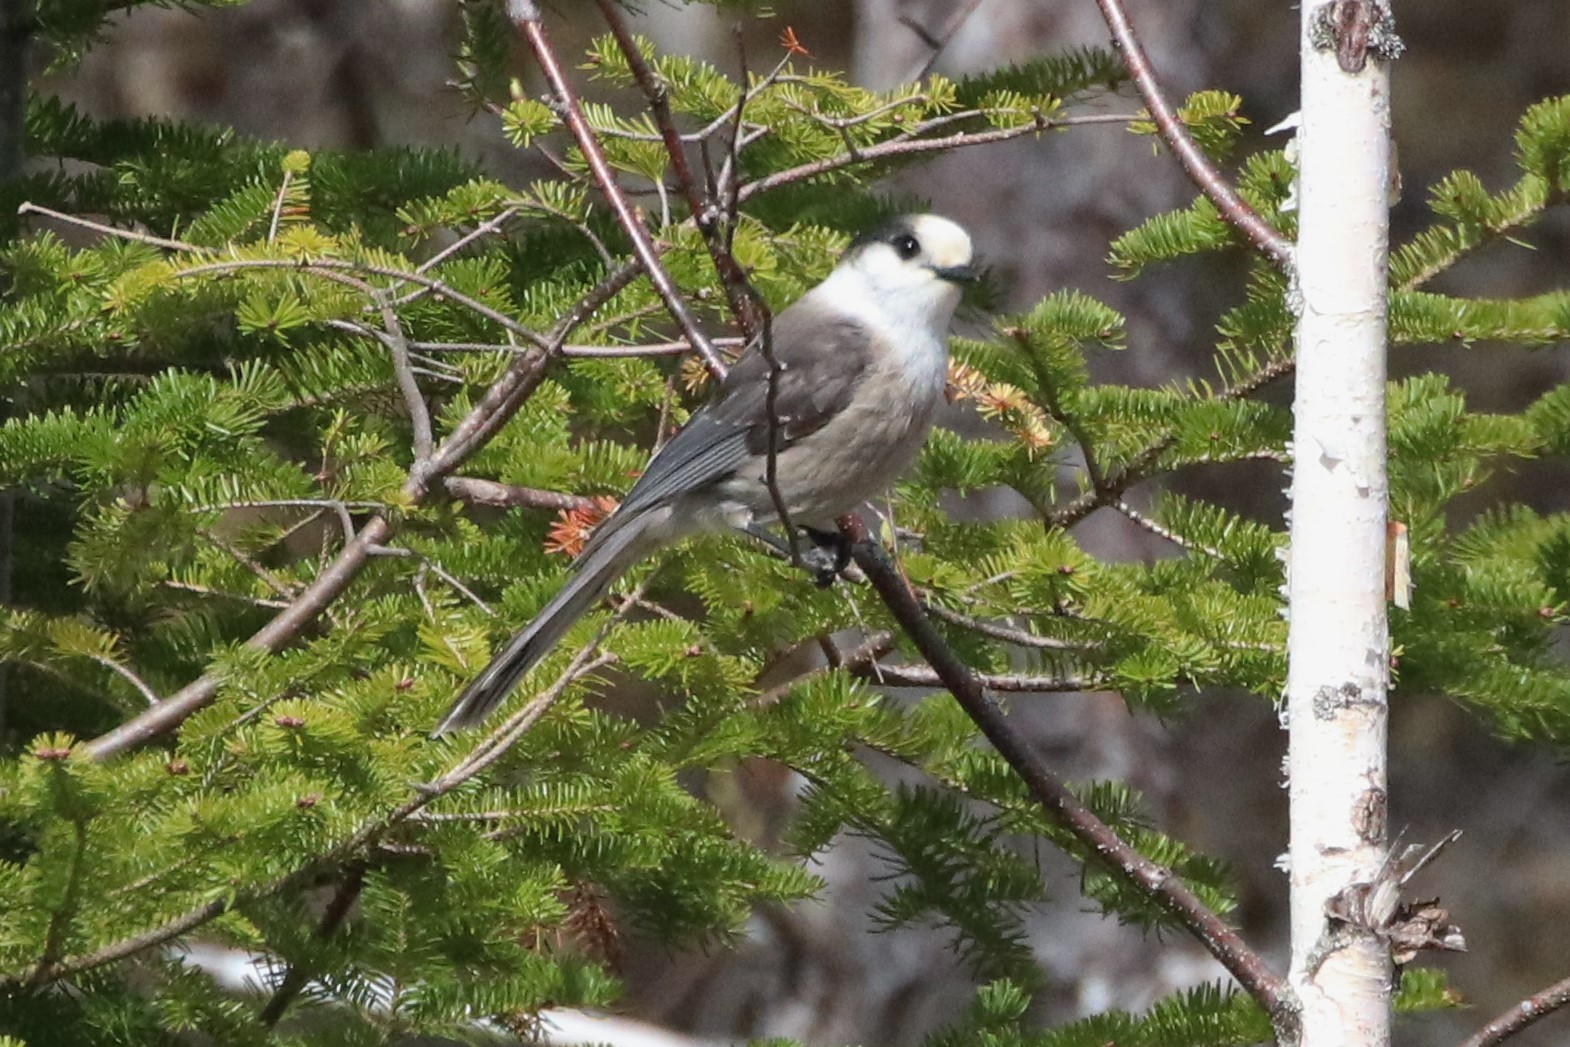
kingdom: Animalia
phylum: Chordata
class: Aves
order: Passeriformes
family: Corvidae
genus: Perisoreus
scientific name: Perisoreus canadensis
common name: Gray jay
